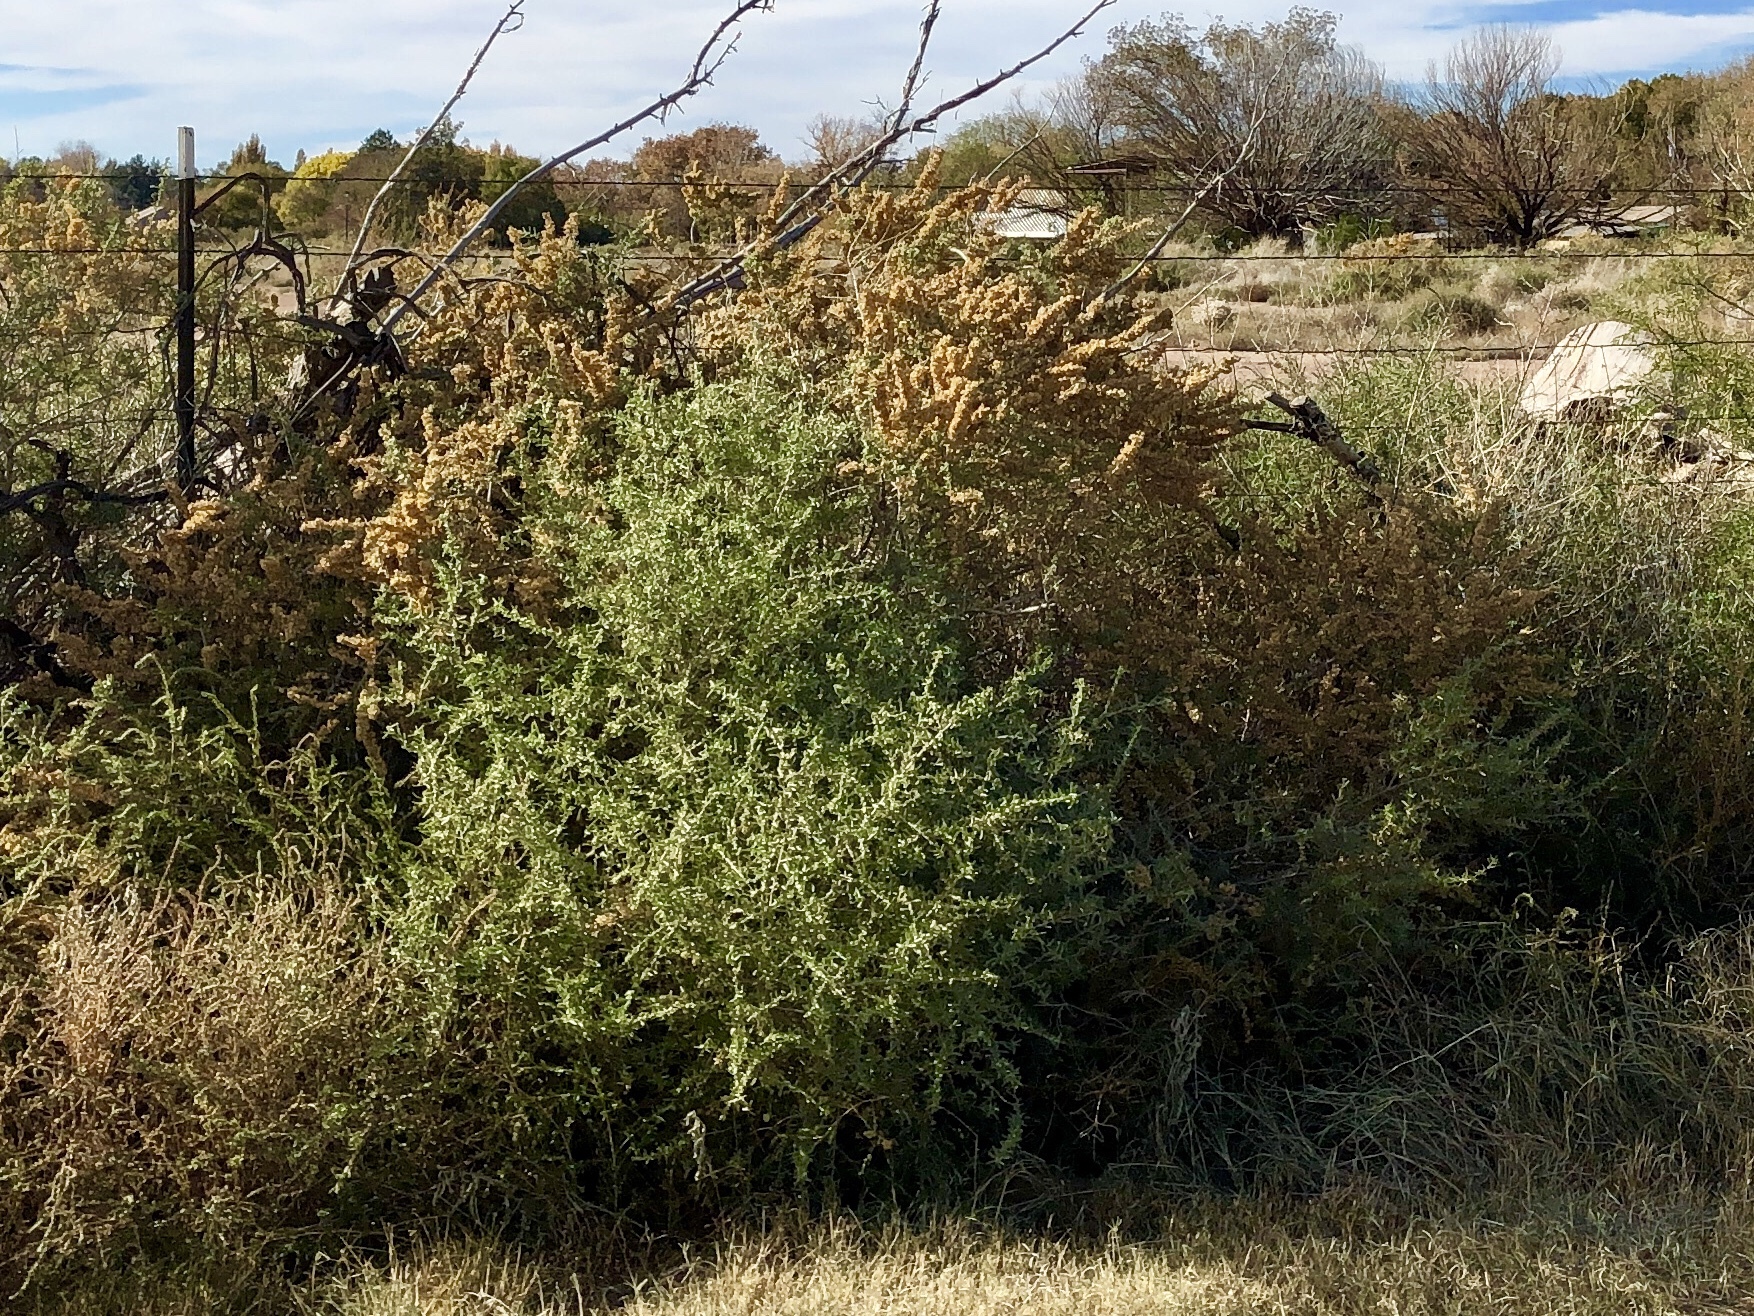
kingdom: Plantae
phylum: Tracheophyta
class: Magnoliopsida
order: Caryophyllales
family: Amaranthaceae
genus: Atriplex
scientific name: Atriplex canescens
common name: Four-wing saltbush
